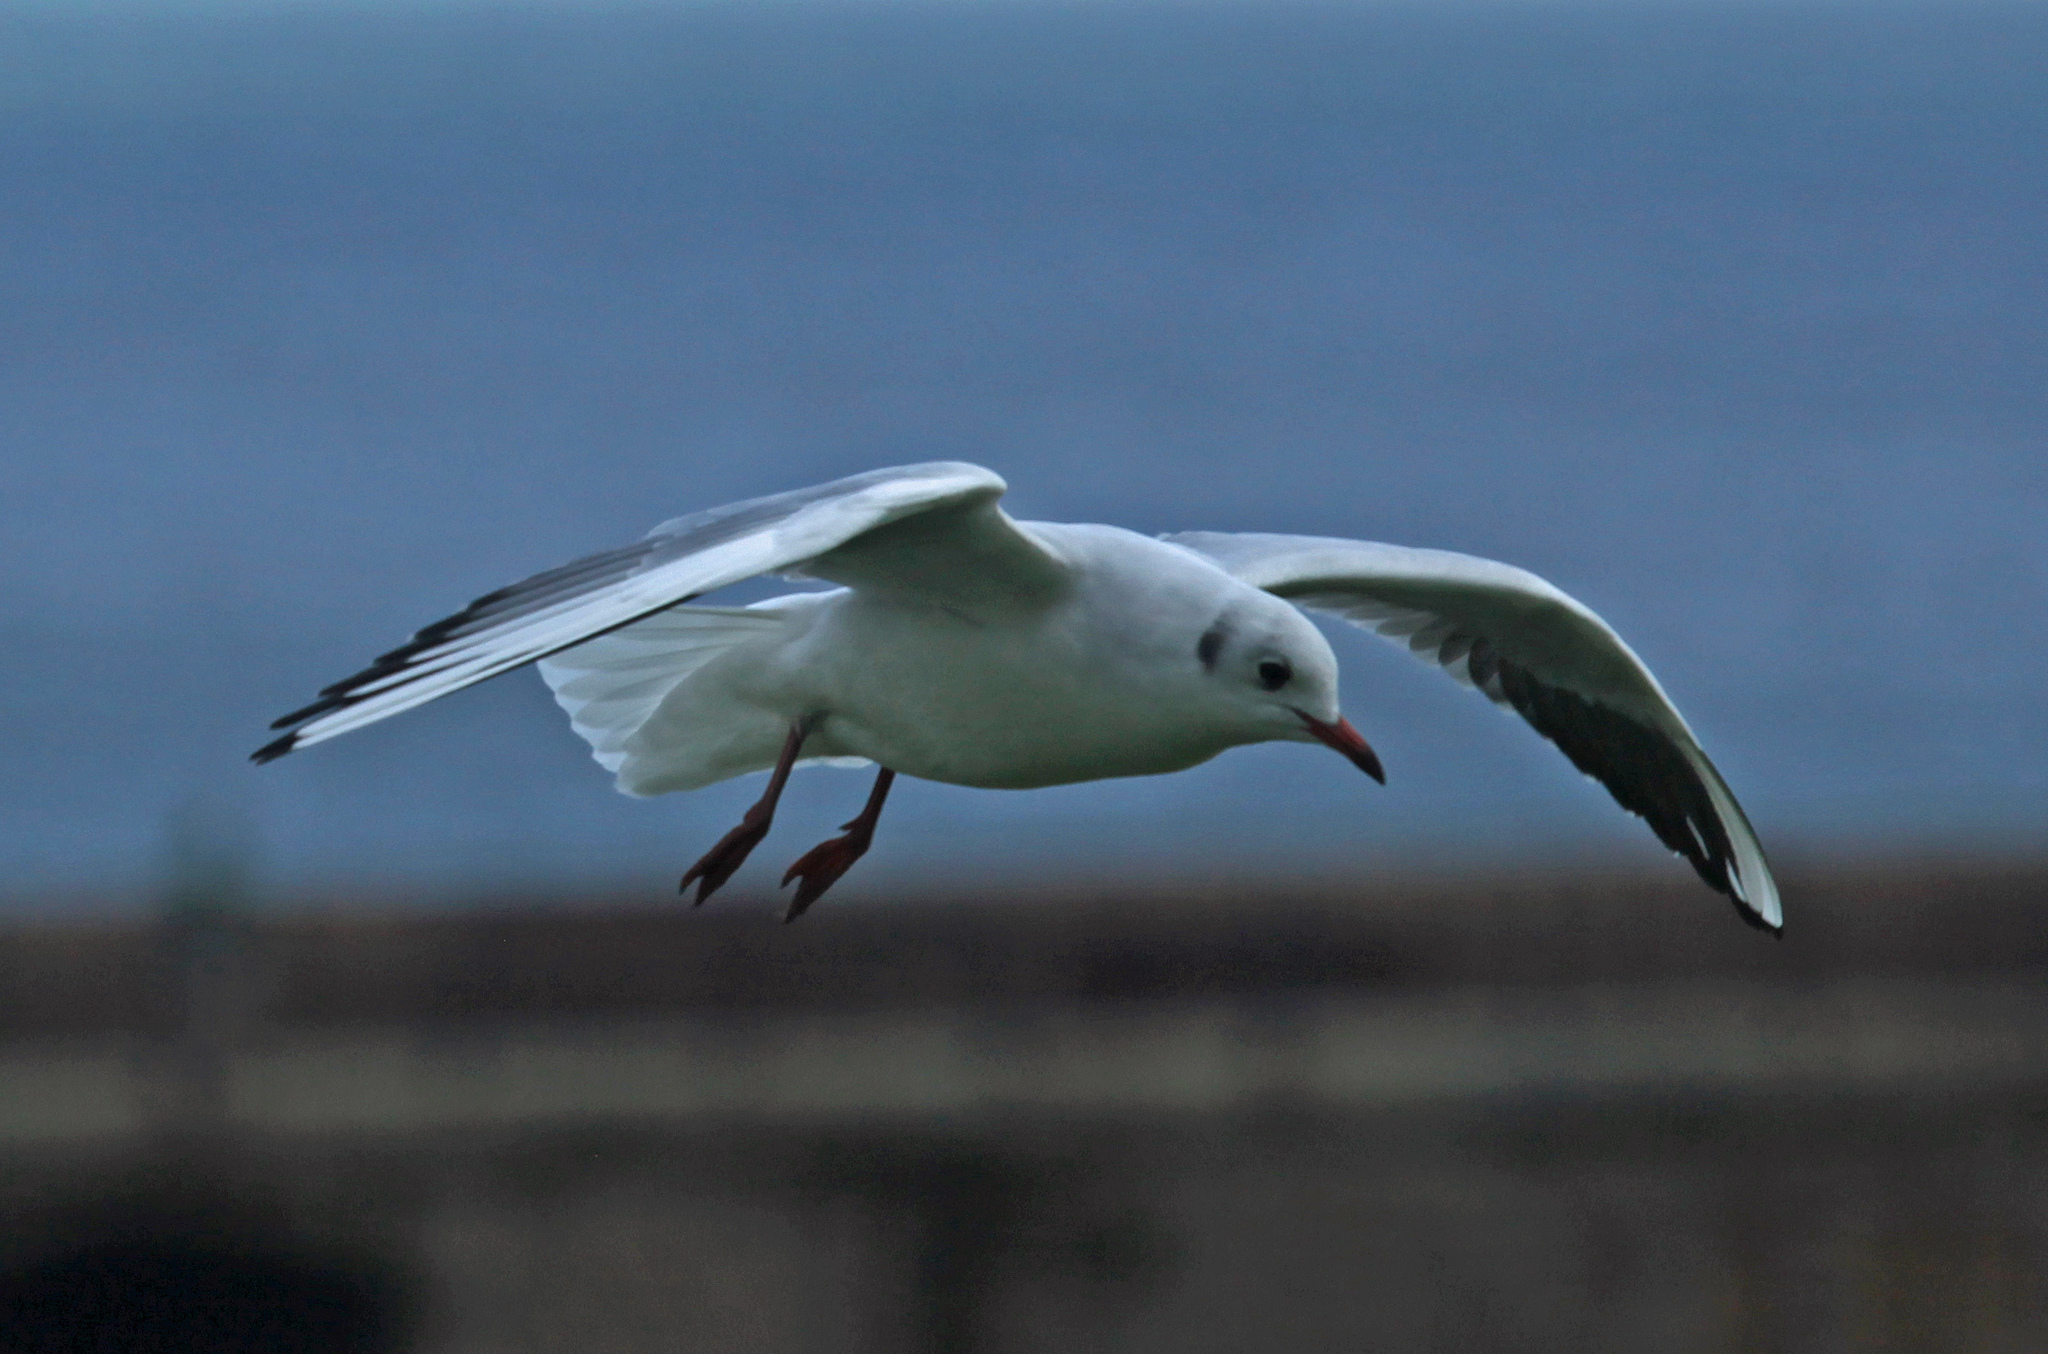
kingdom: Animalia
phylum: Chordata
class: Aves
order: Charadriiformes
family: Laridae
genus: Chroicocephalus
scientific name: Chroicocephalus ridibundus
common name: Black-headed gull
